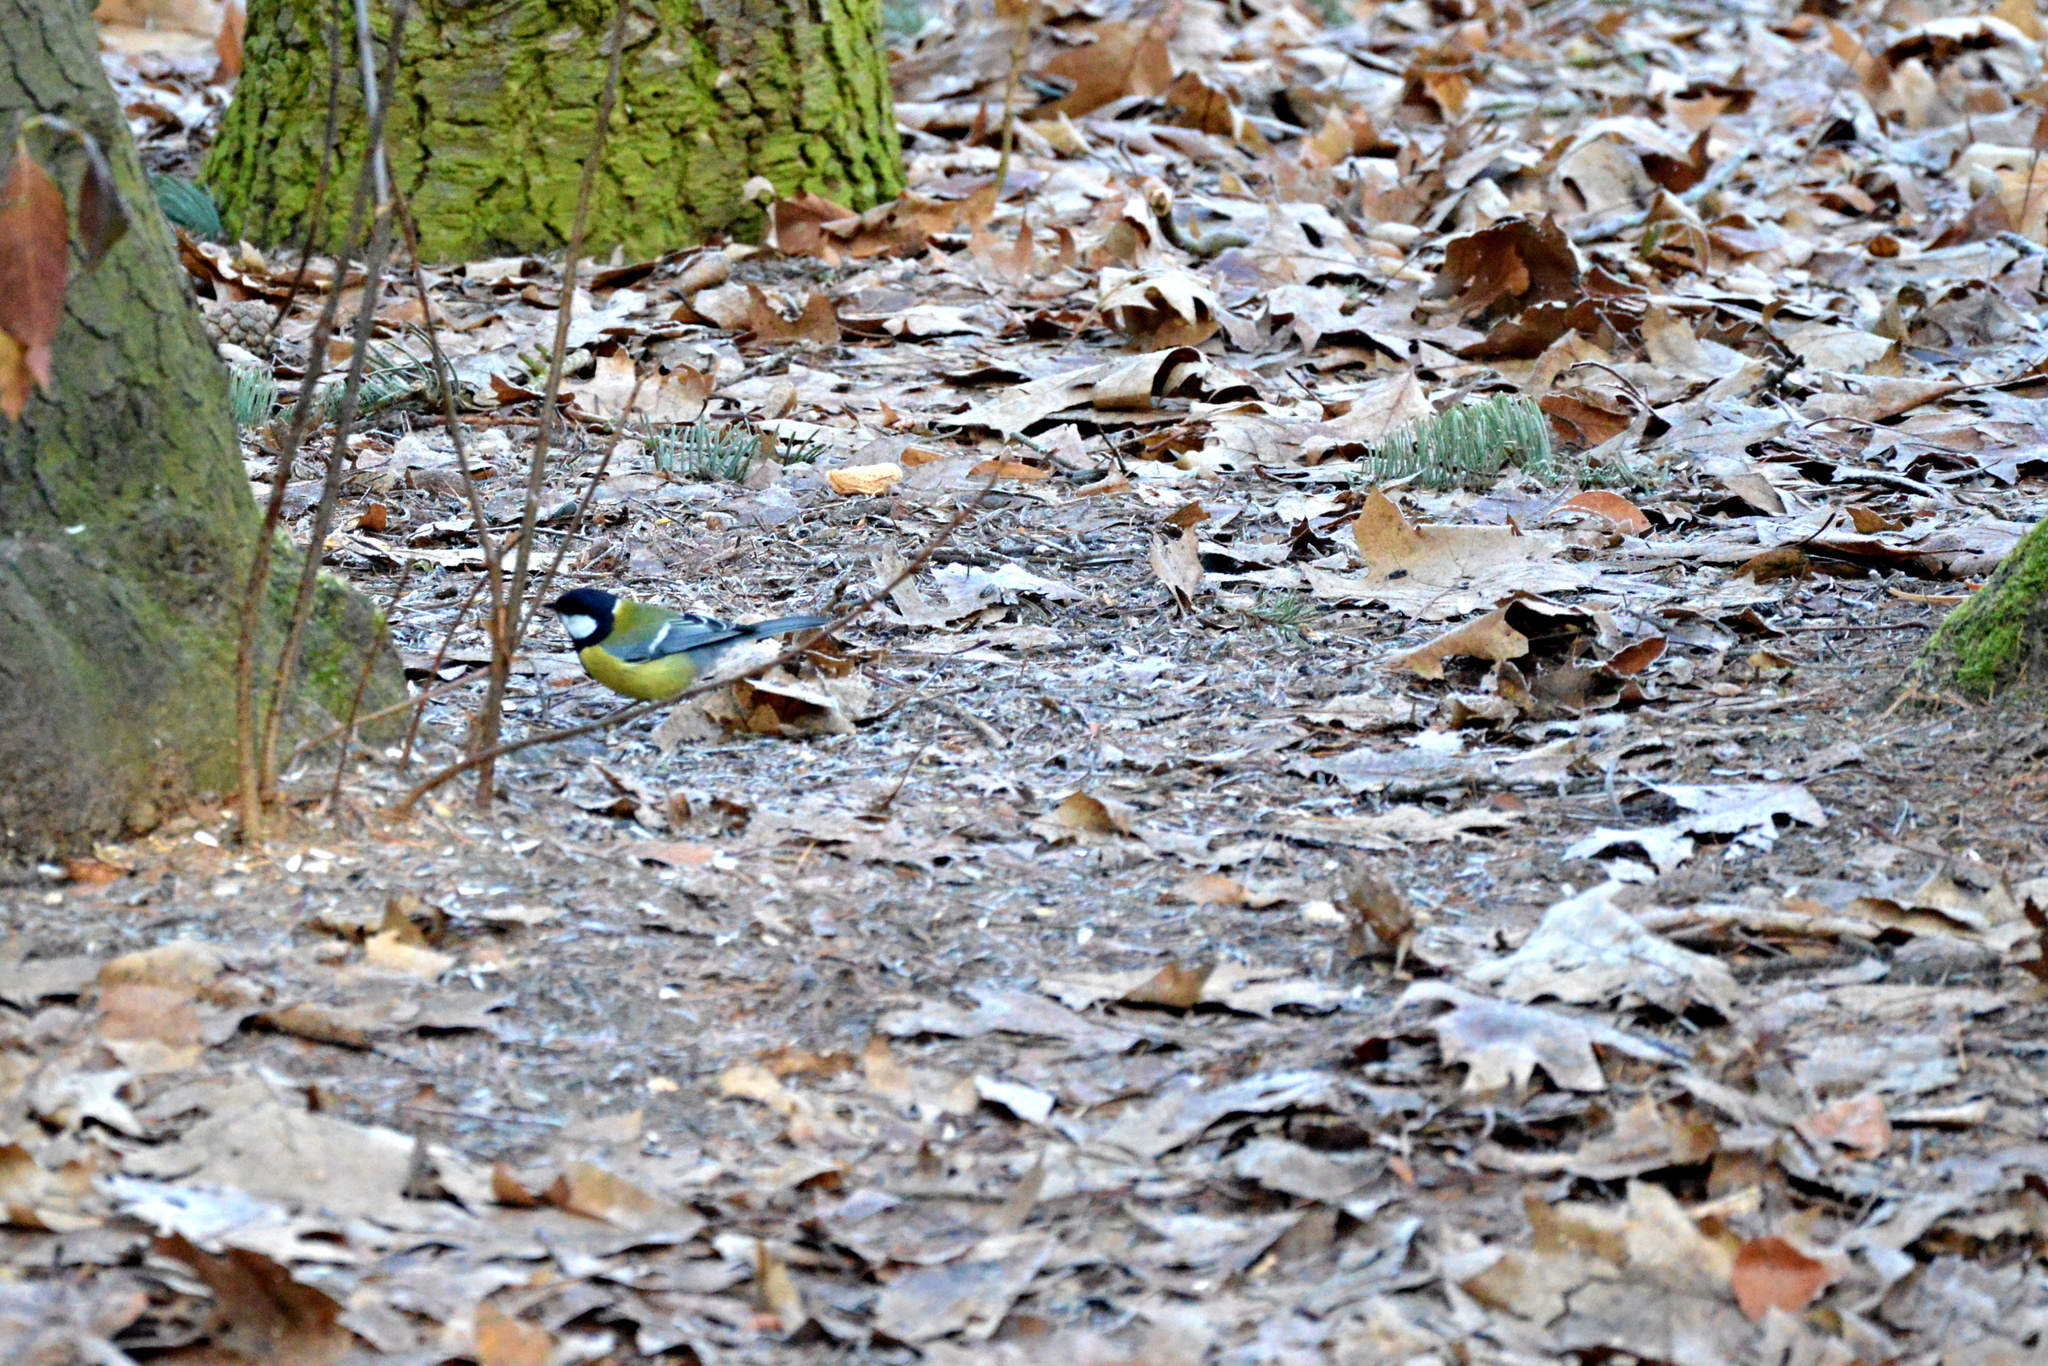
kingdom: Animalia
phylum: Chordata
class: Aves
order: Passeriformes
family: Paridae
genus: Parus
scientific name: Parus major
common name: Great tit
